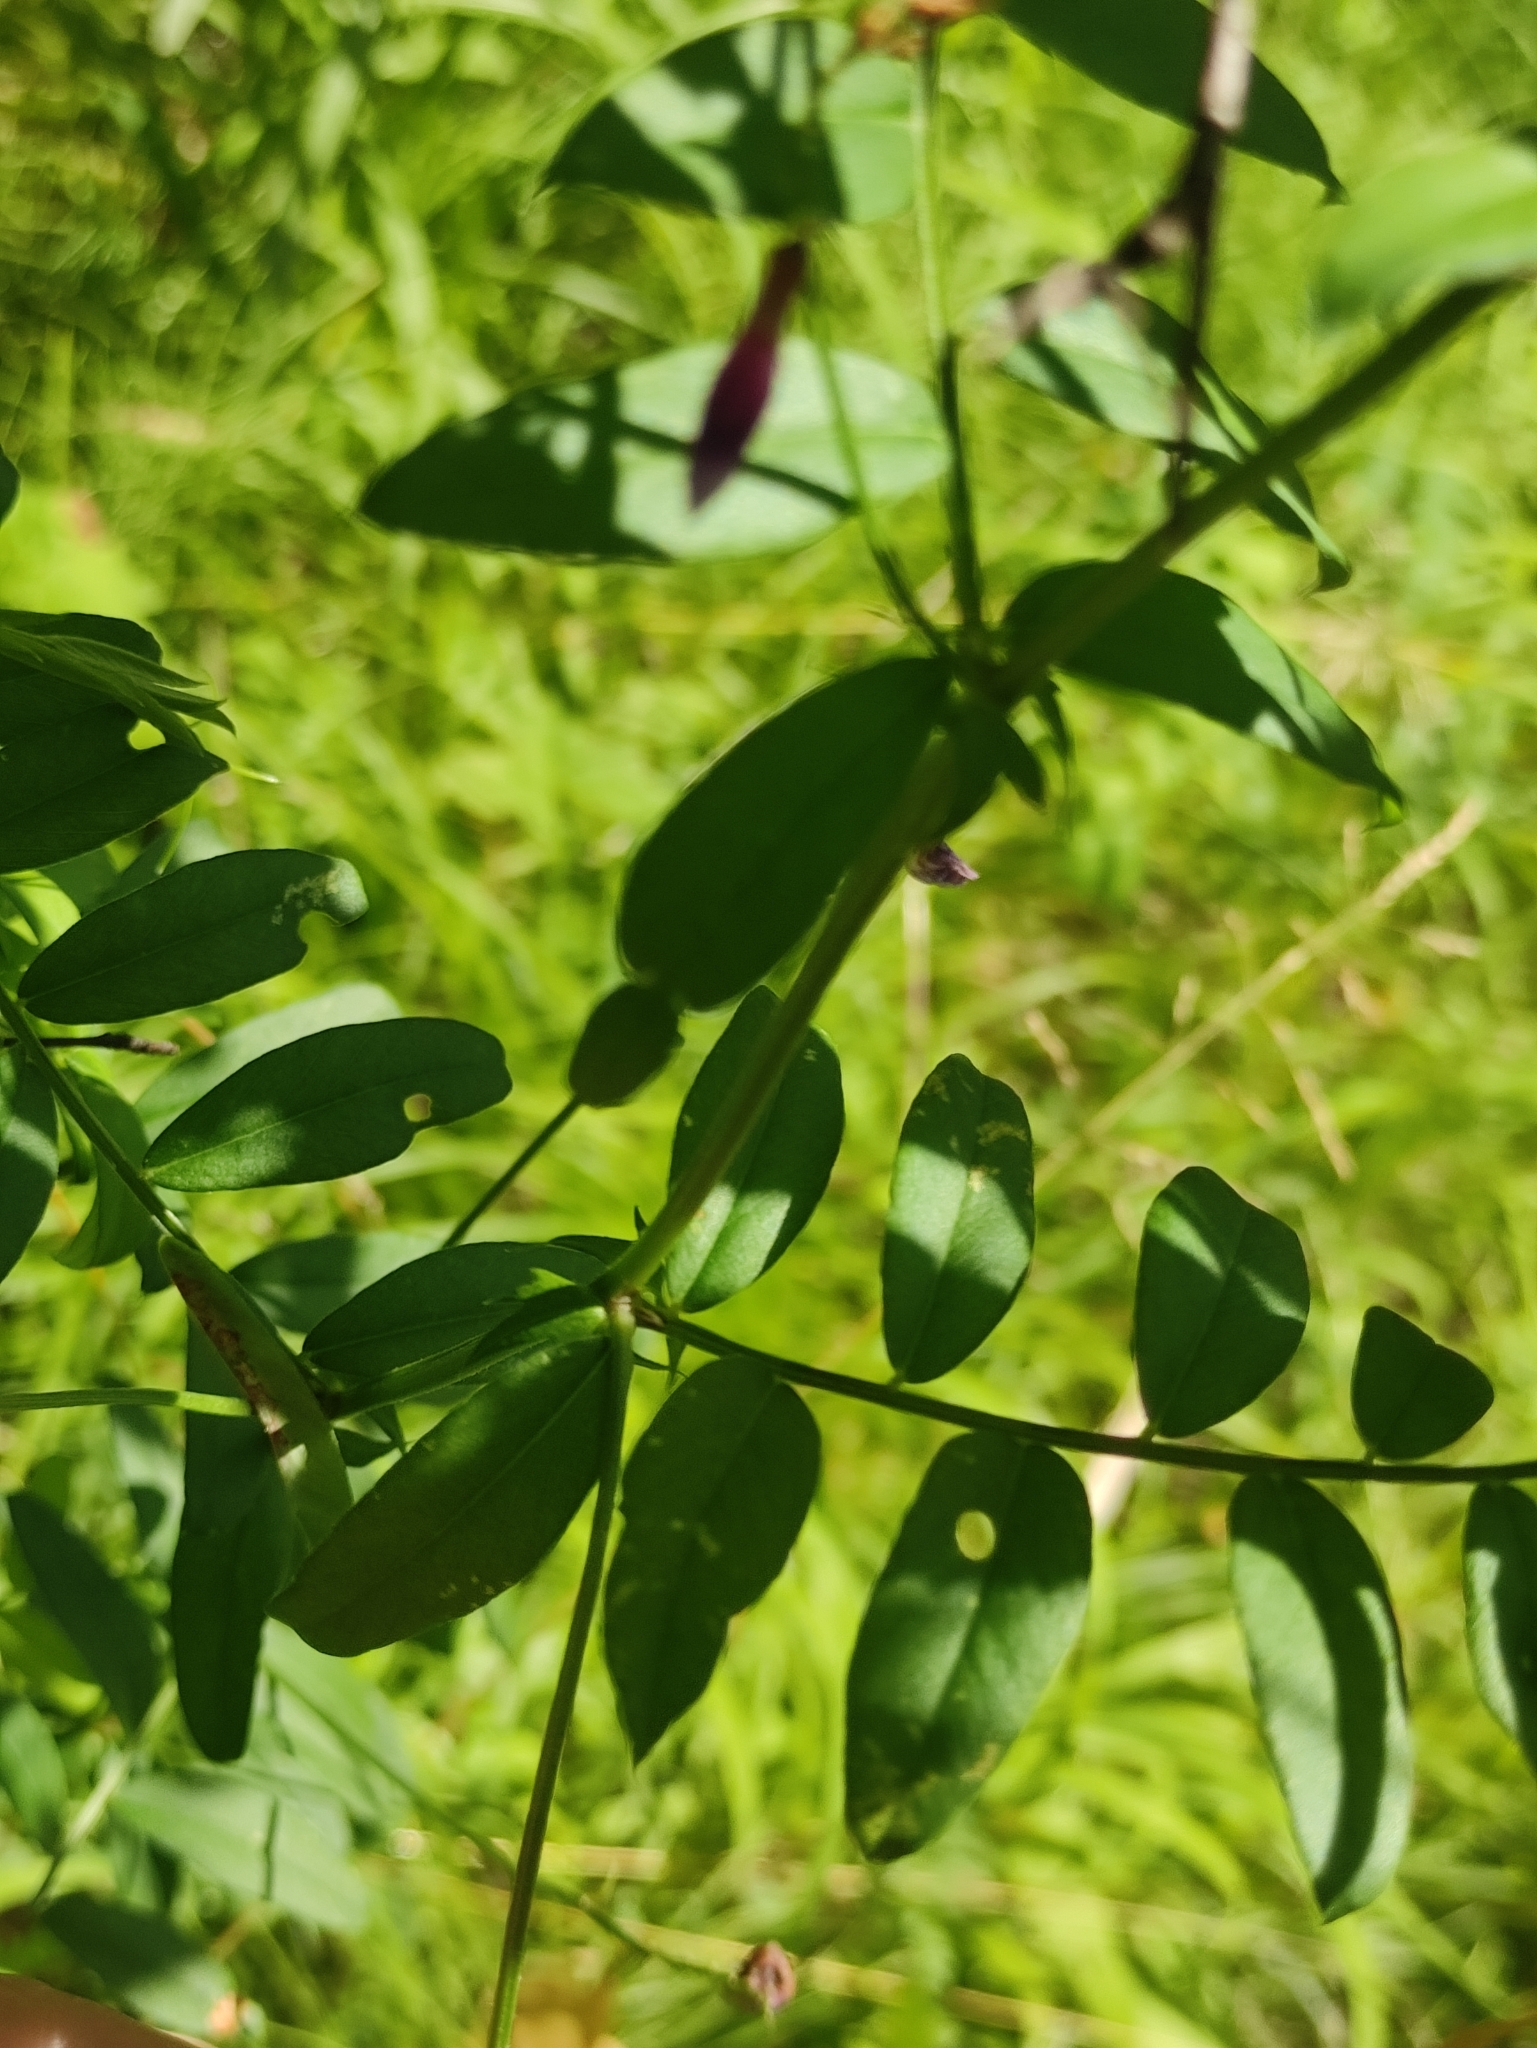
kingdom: Plantae
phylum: Tracheophyta
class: Magnoliopsida
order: Fabales
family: Fabaceae
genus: Vicia
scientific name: Vicia amoena
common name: Cheder ebs
